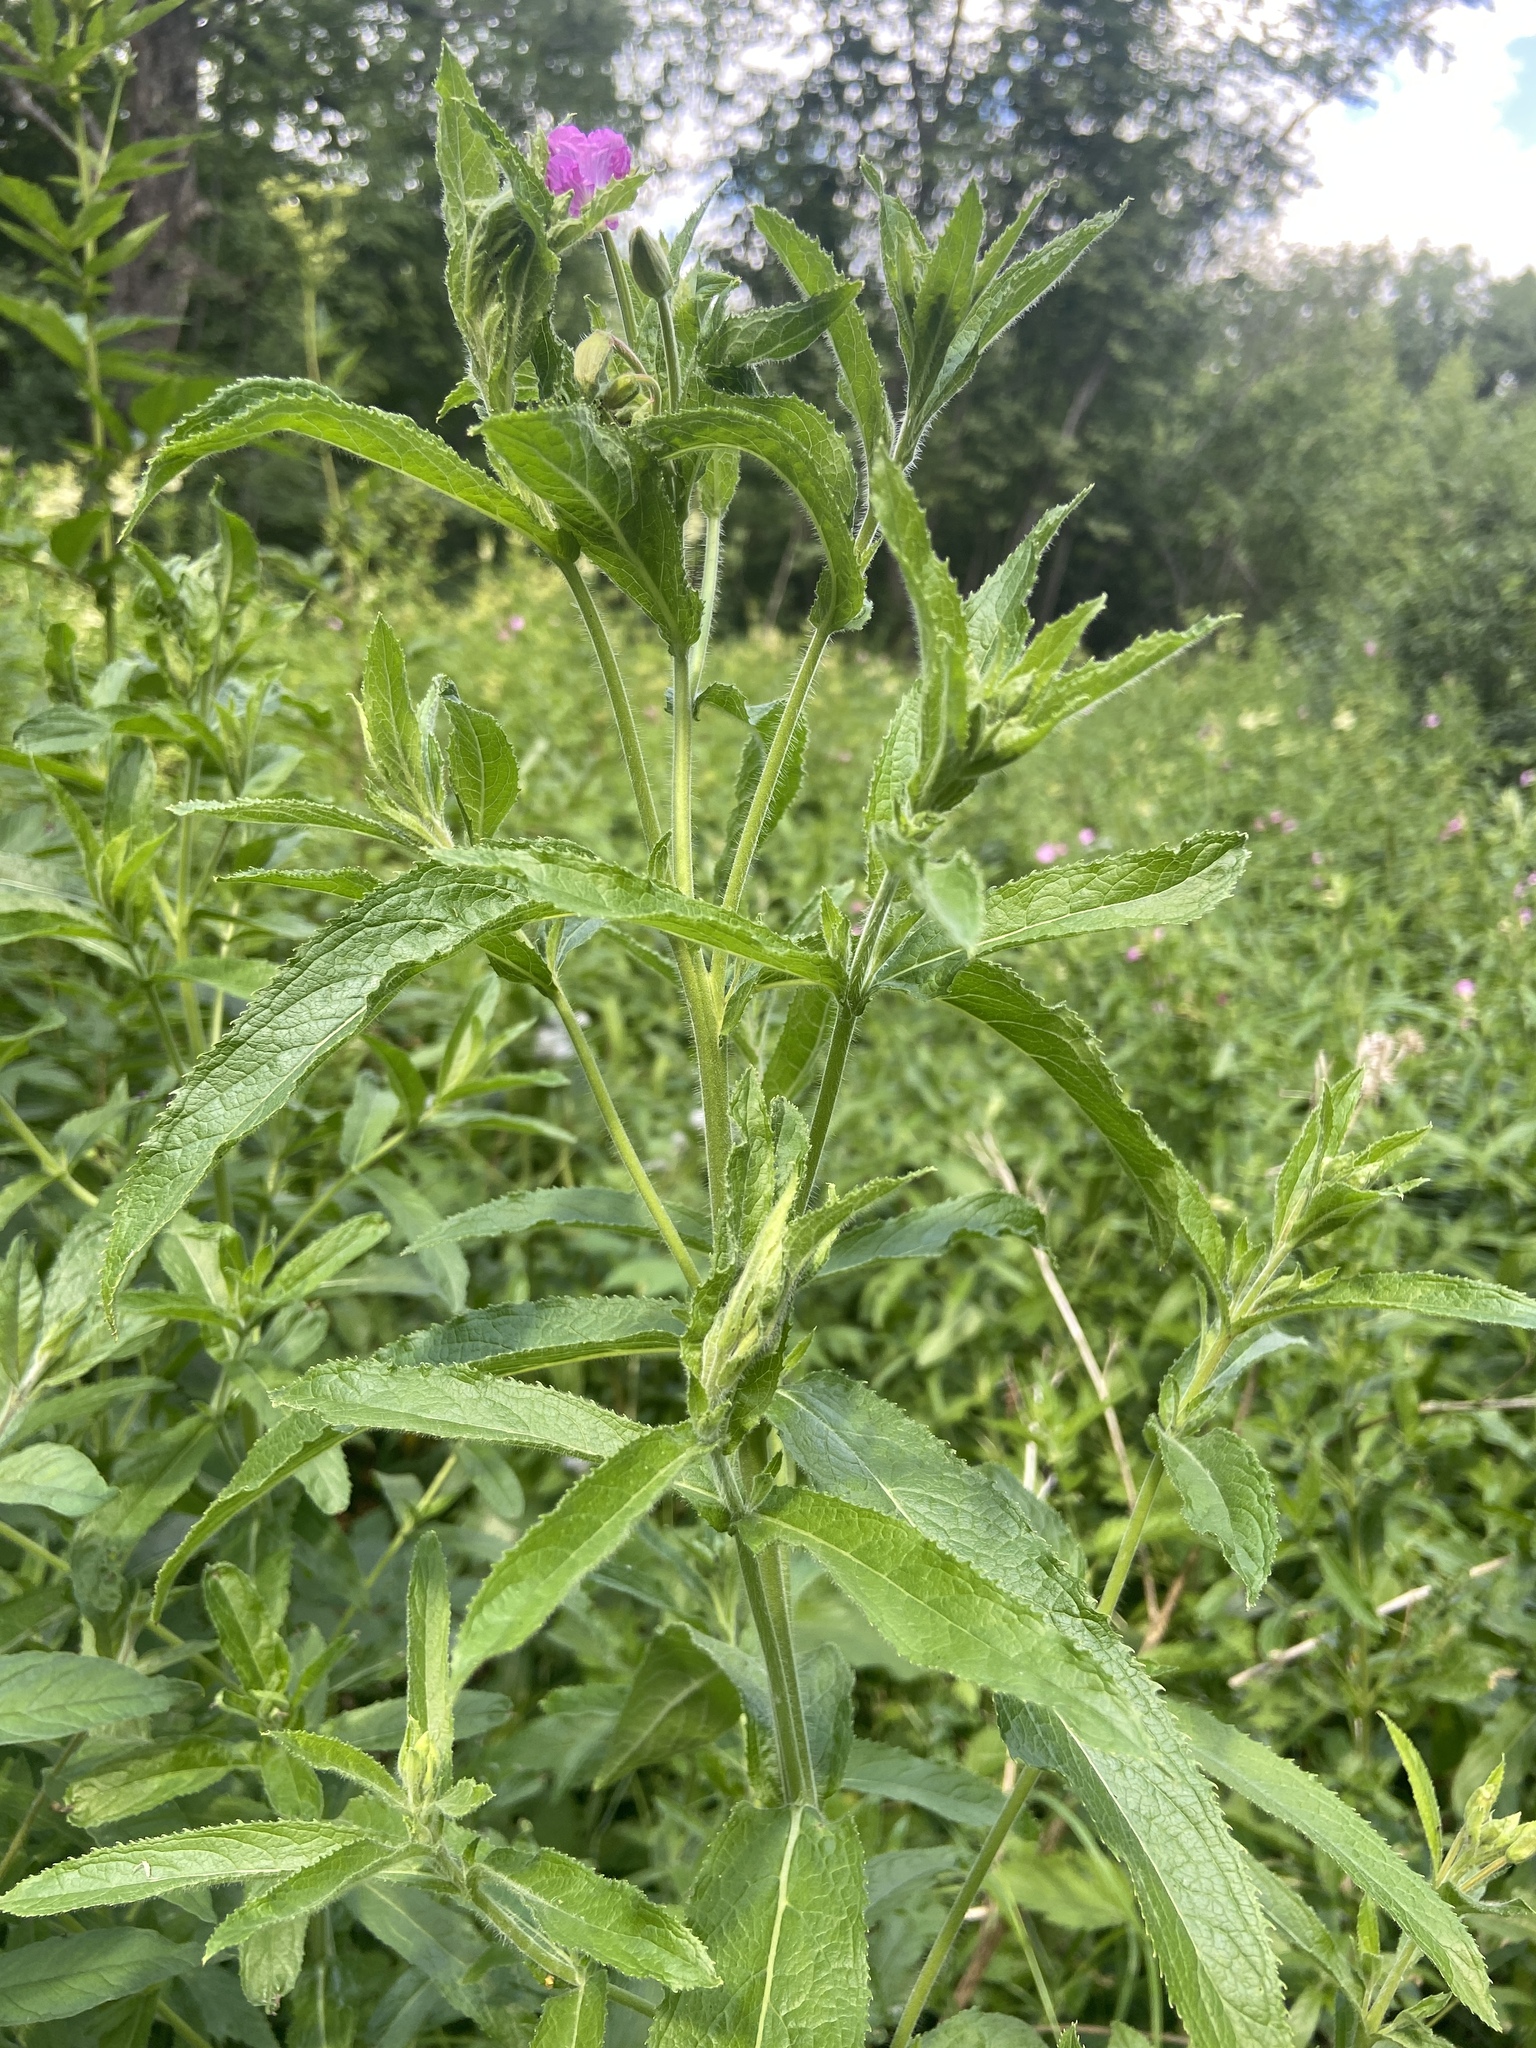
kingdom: Plantae
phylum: Tracheophyta
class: Magnoliopsida
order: Myrtales
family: Onagraceae
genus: Epilobium
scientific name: Epilobium hirsutum
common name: Great willowherb
